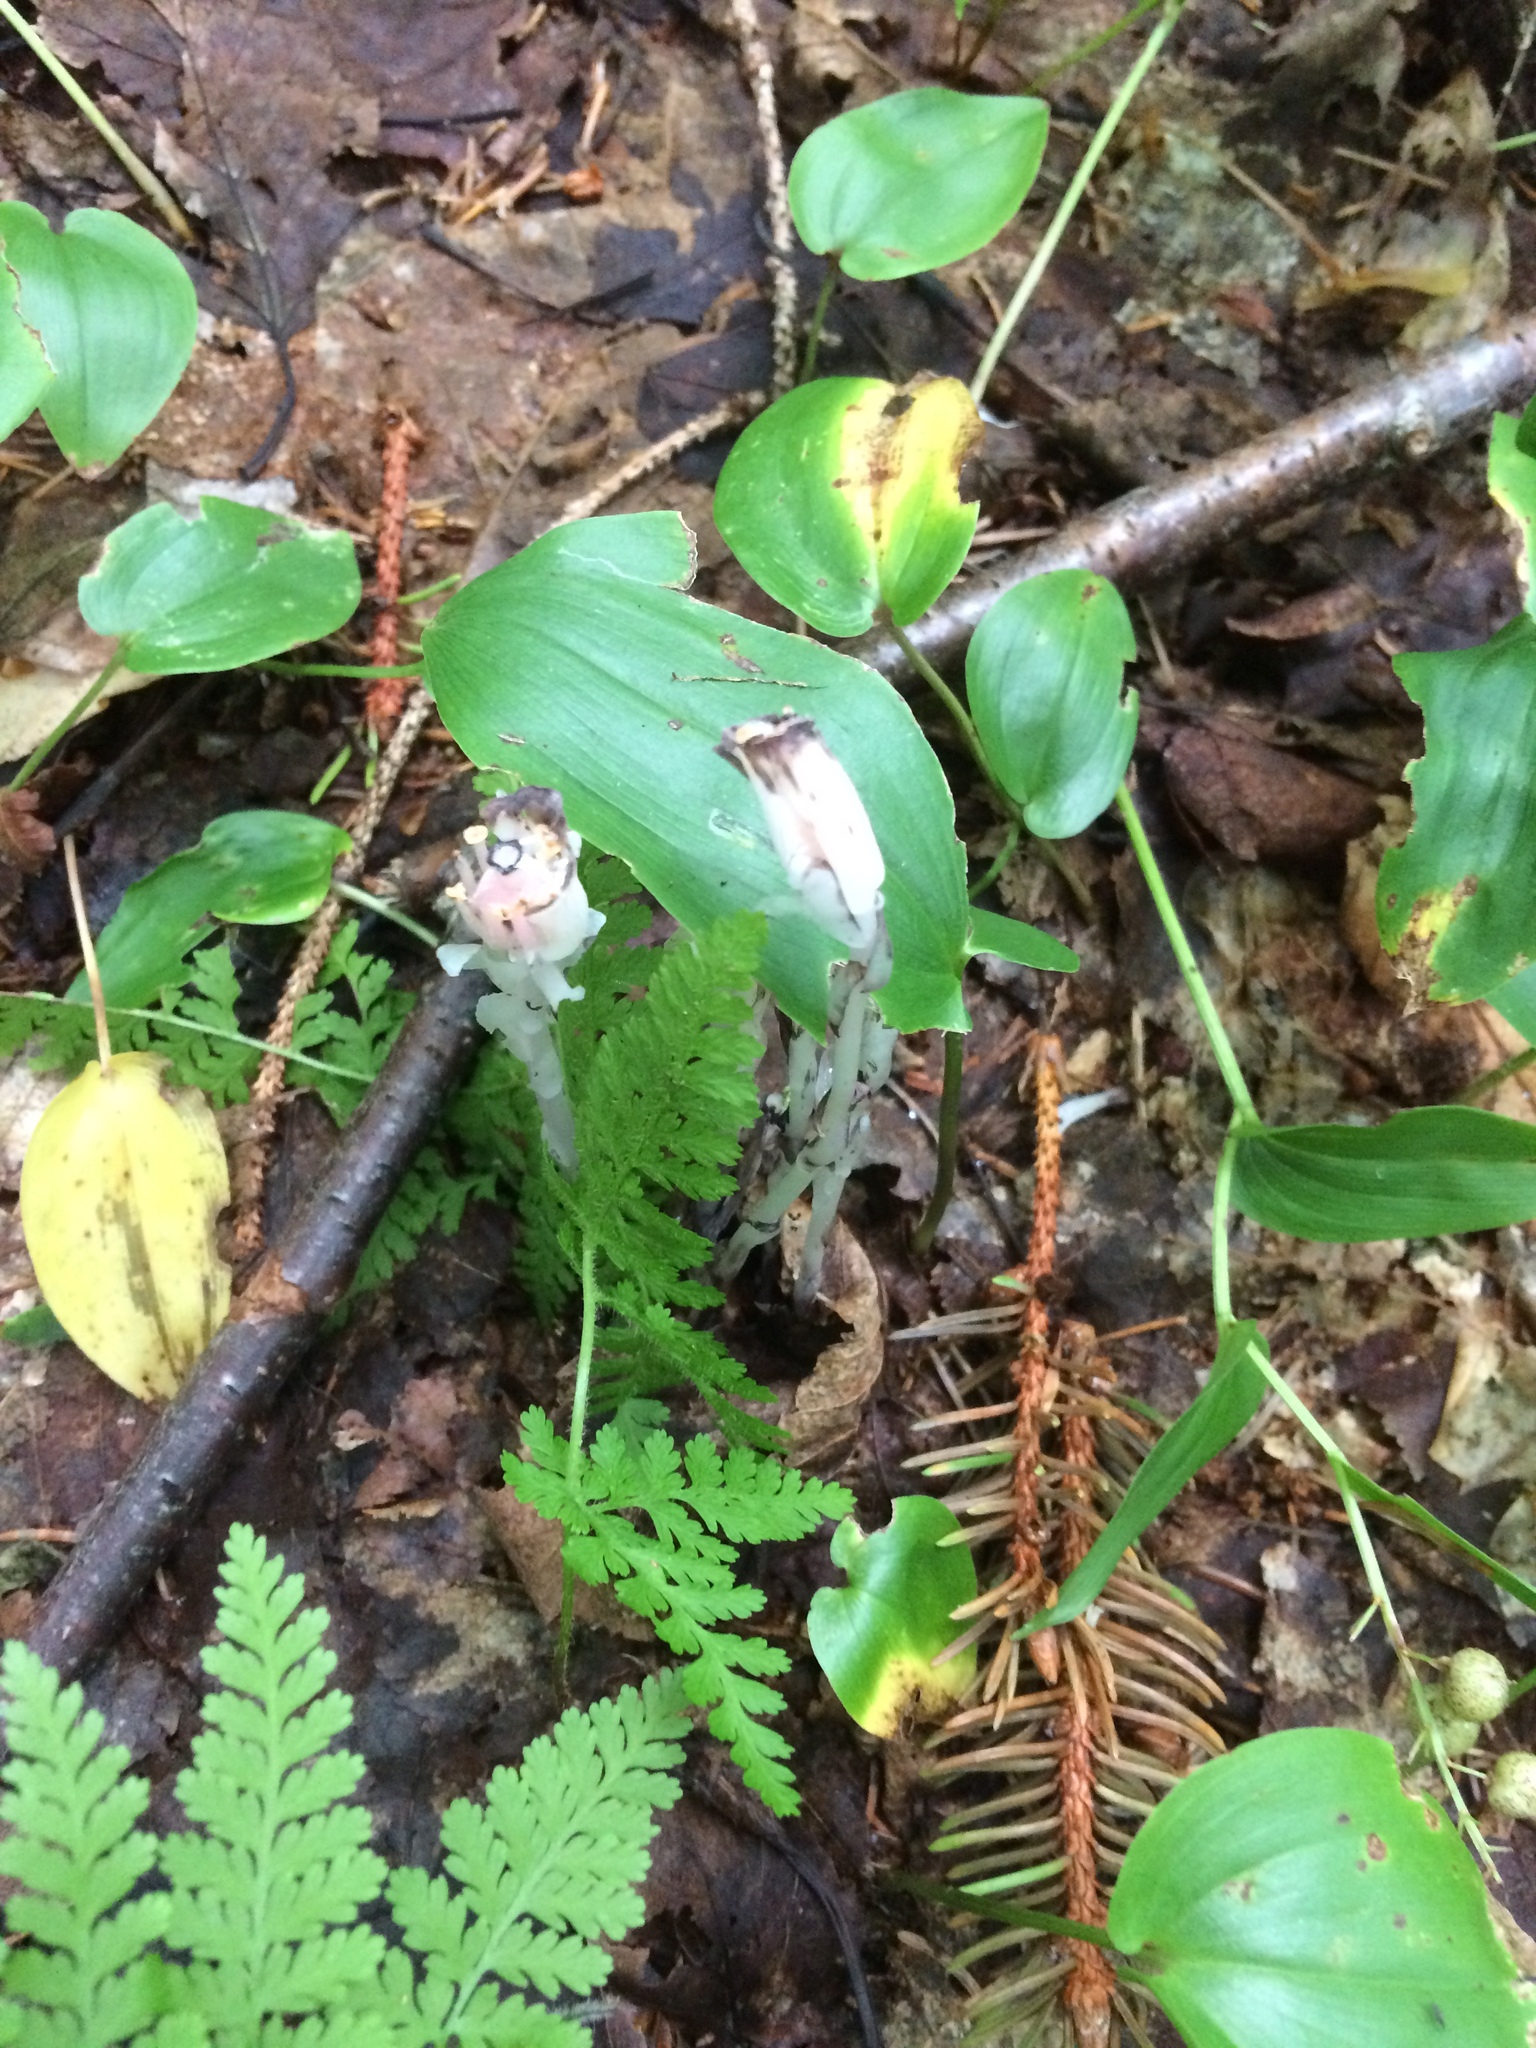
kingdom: Plantae
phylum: Tracheophyta
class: Magnoliopsida
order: Ericales
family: Ericaceae
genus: Monotropa
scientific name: Monotropa uniflora
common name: Convulsion root
